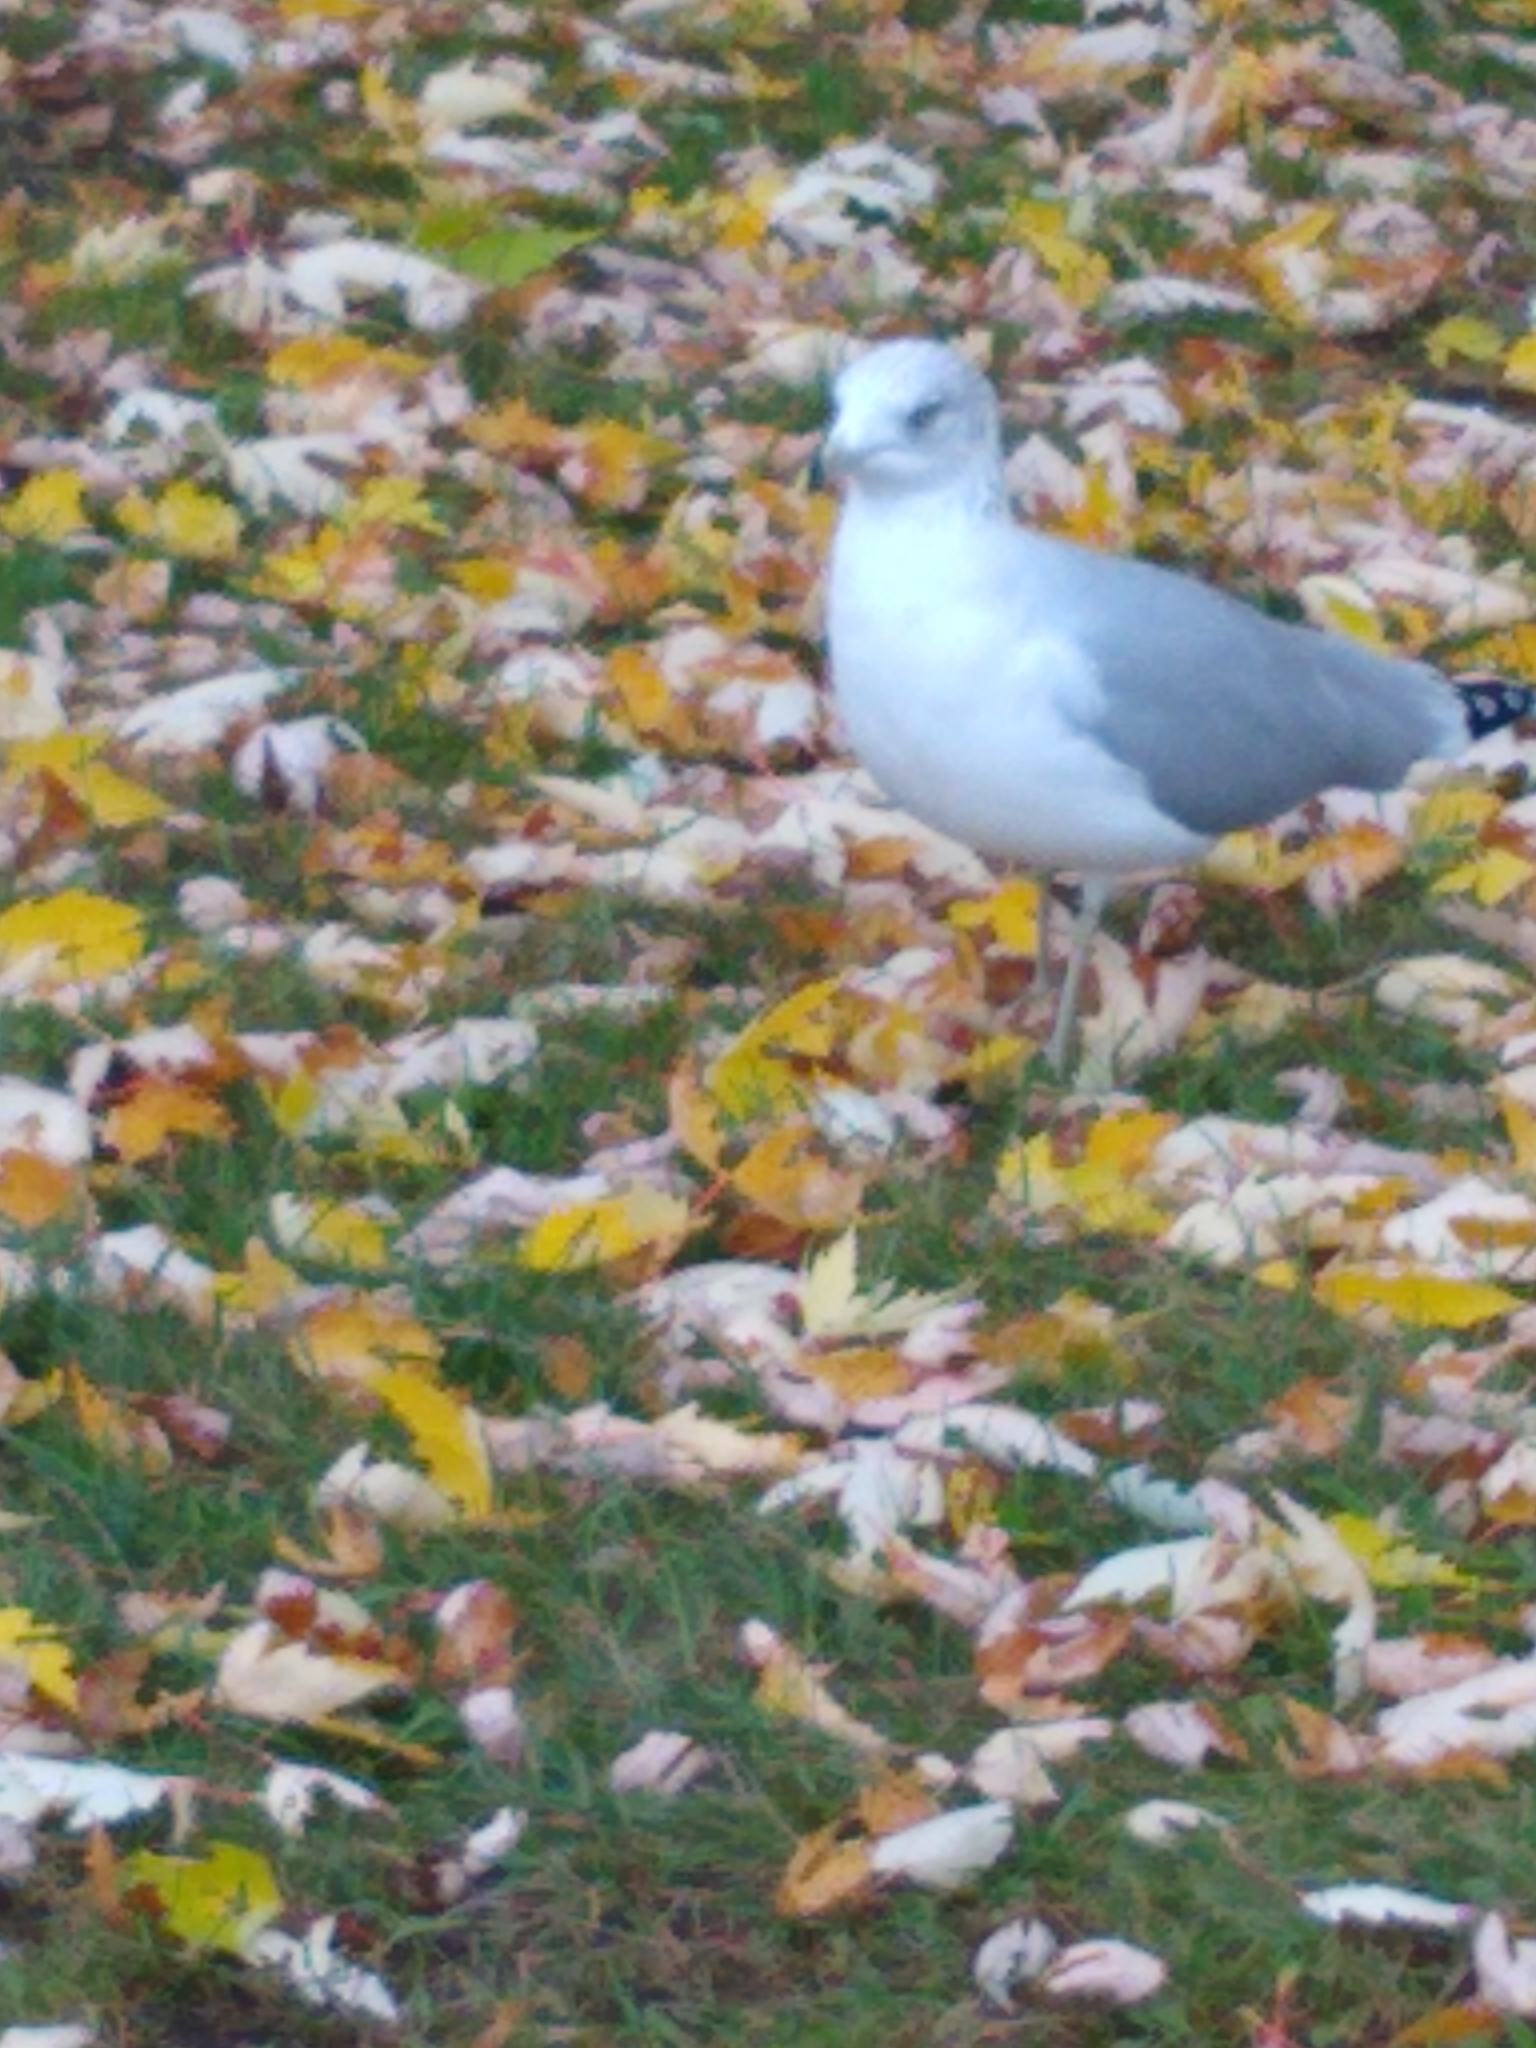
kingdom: Animalia
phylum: Chordata
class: Aves
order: Charadriiformes
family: Laridae
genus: Larus
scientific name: Larus delawarensis
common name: Ring-billed gull
